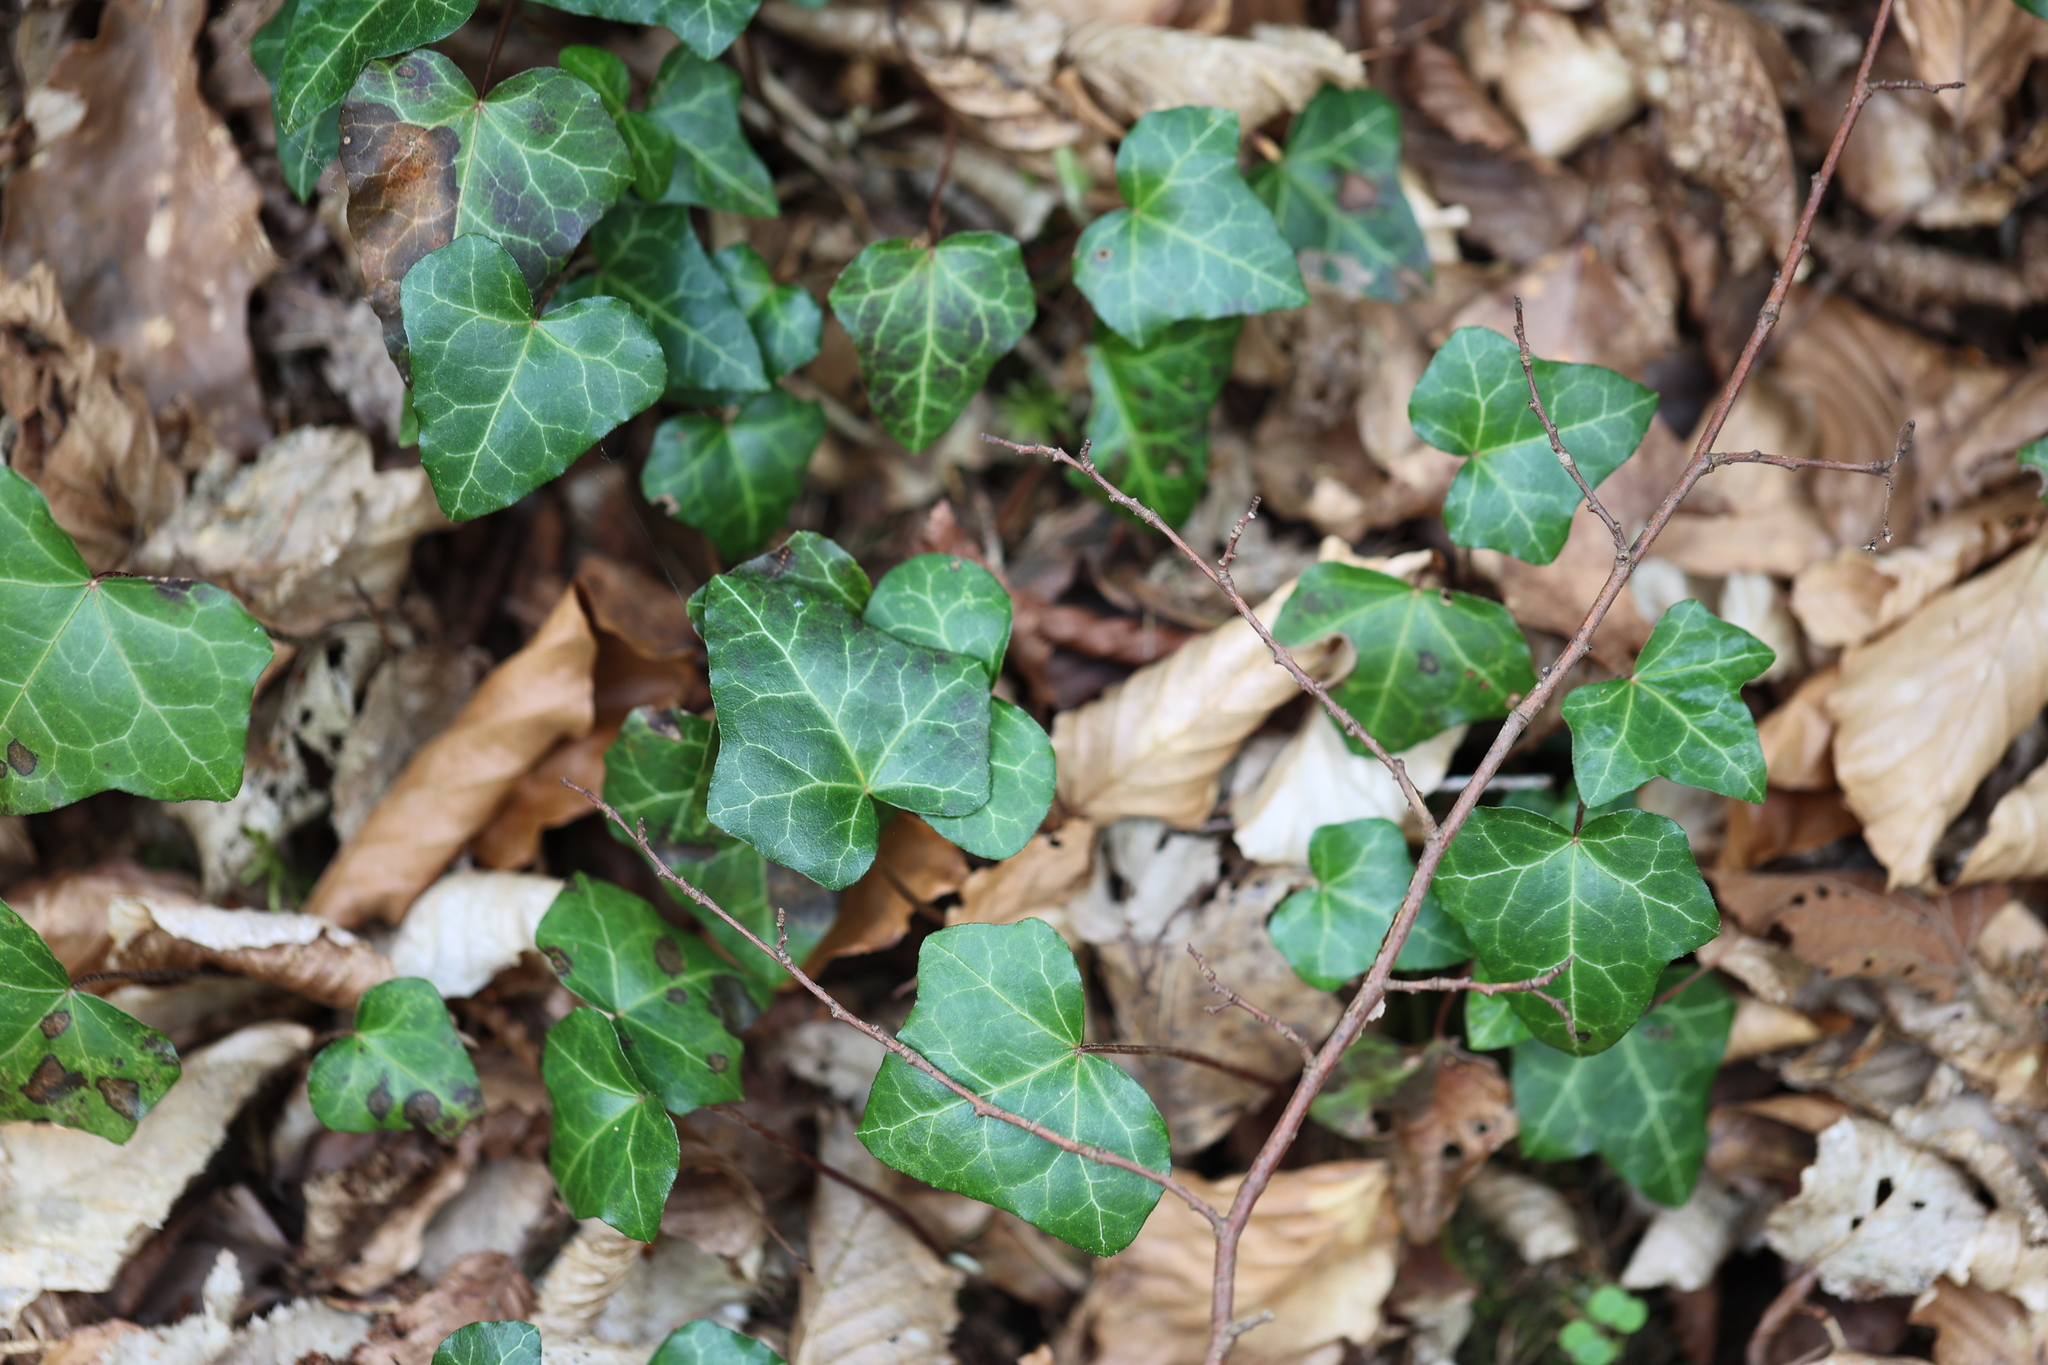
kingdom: Plantae
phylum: Tracheophyta
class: Magnoliopsida
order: Apiales
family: Araliaceae
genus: Hedera
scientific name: Hedera helix
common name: Ivy
